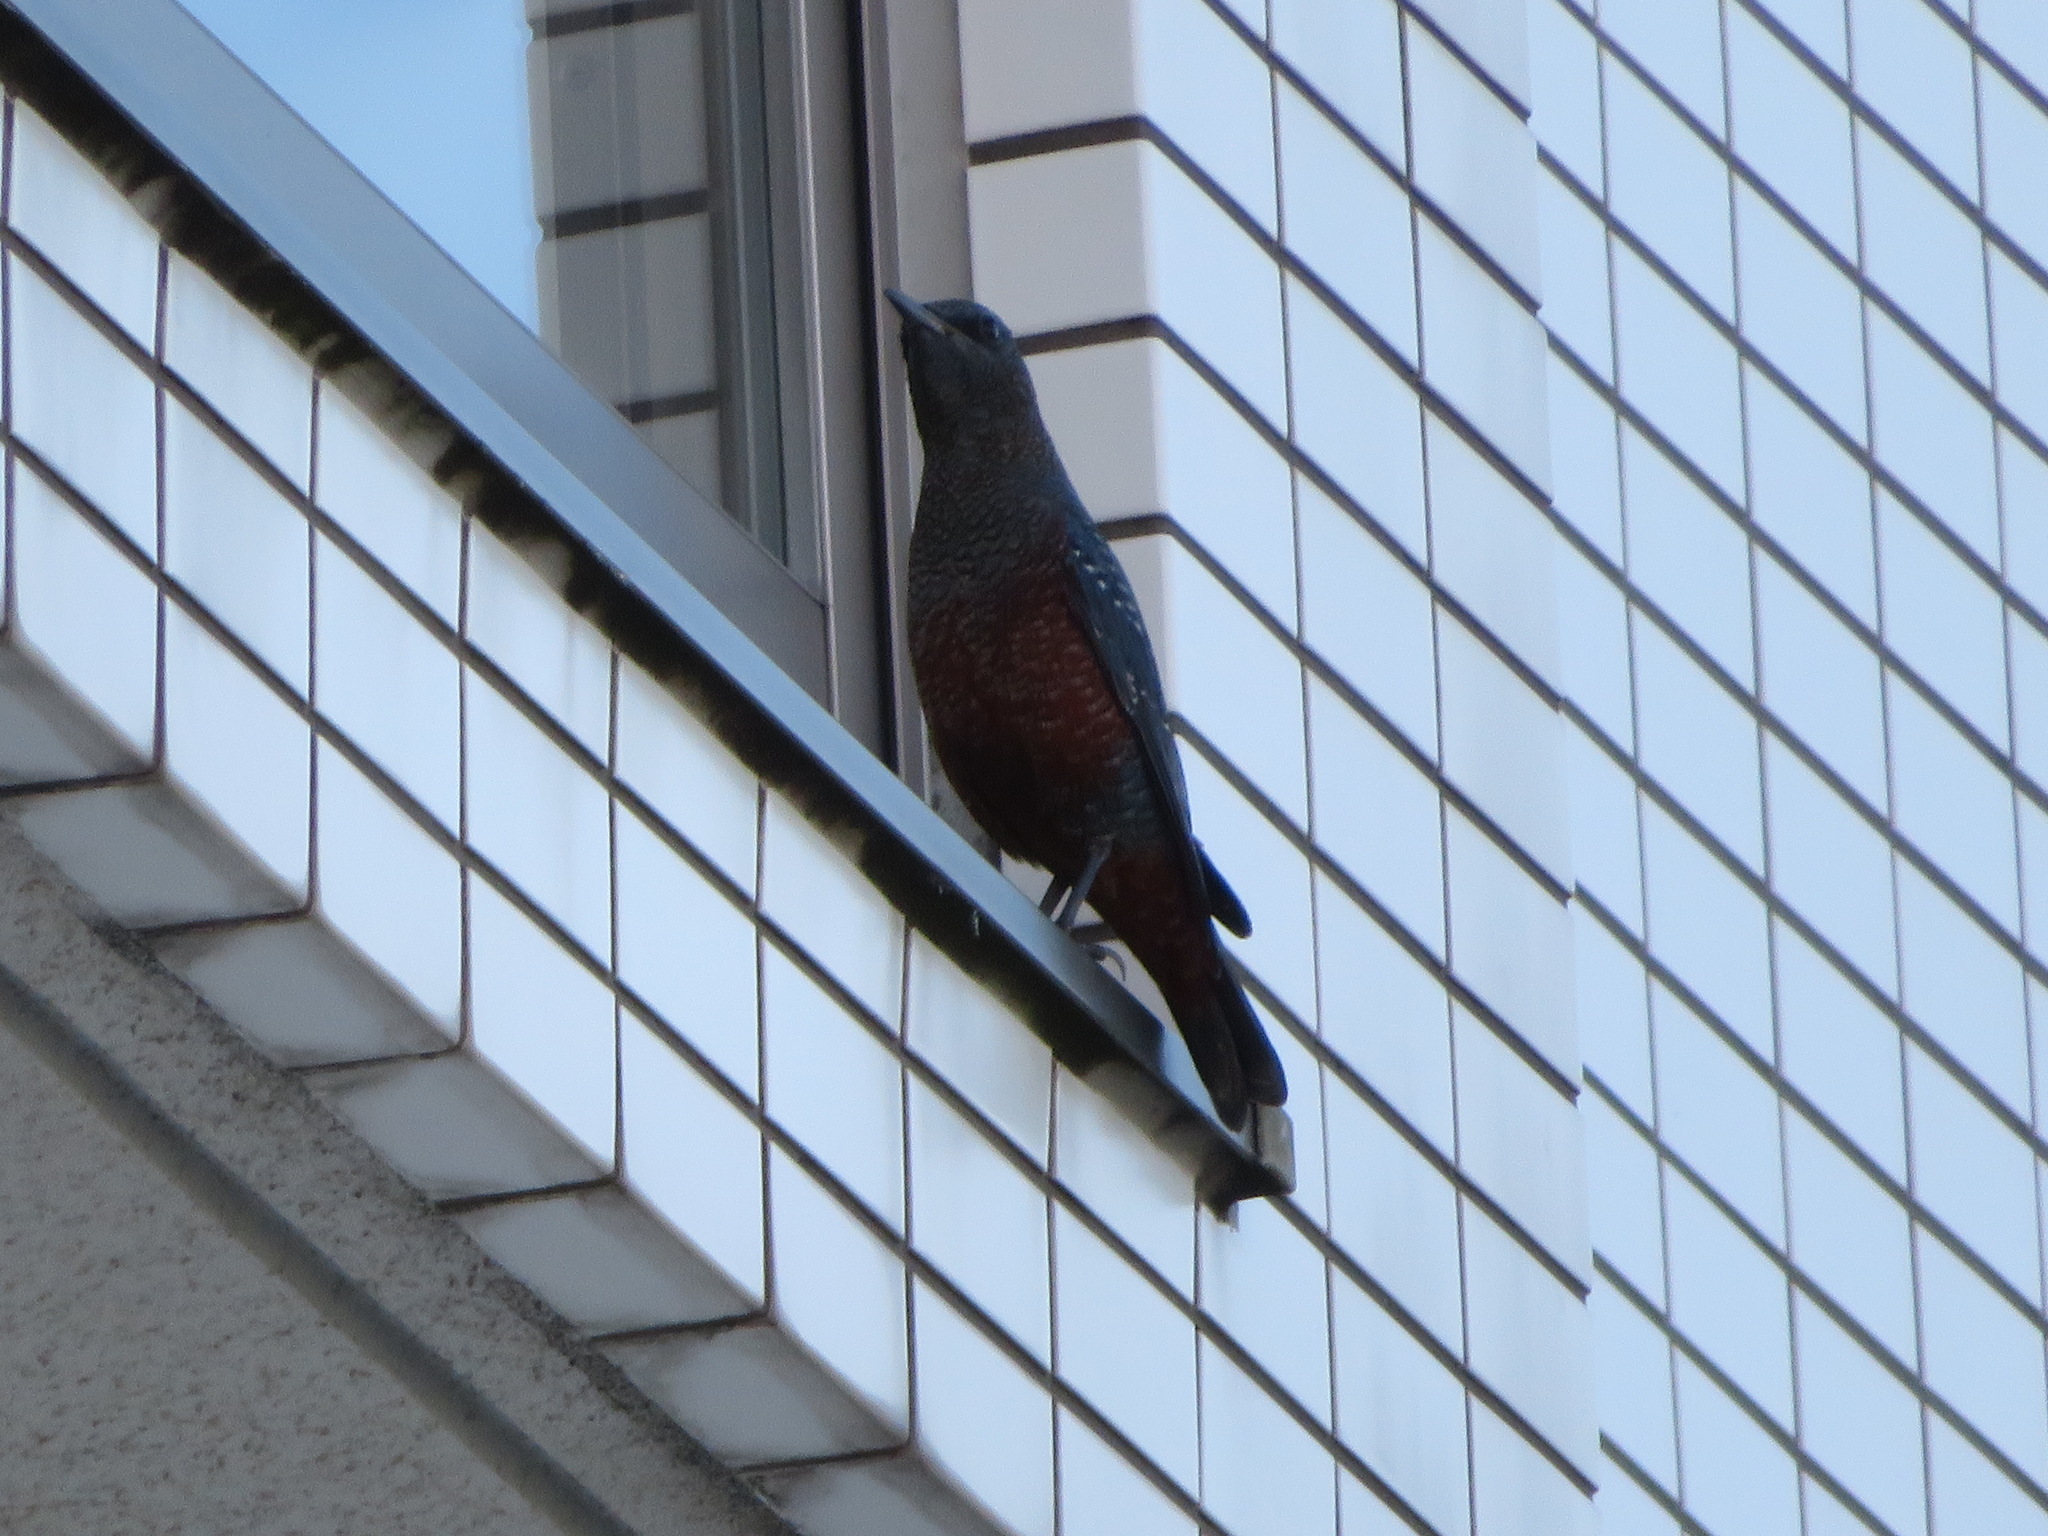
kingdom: Animalia
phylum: Chordata
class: Aves
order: Passeriformes
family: Muscicapidae
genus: Monticola
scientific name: Monticola solitarius
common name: Blue rock thrush
